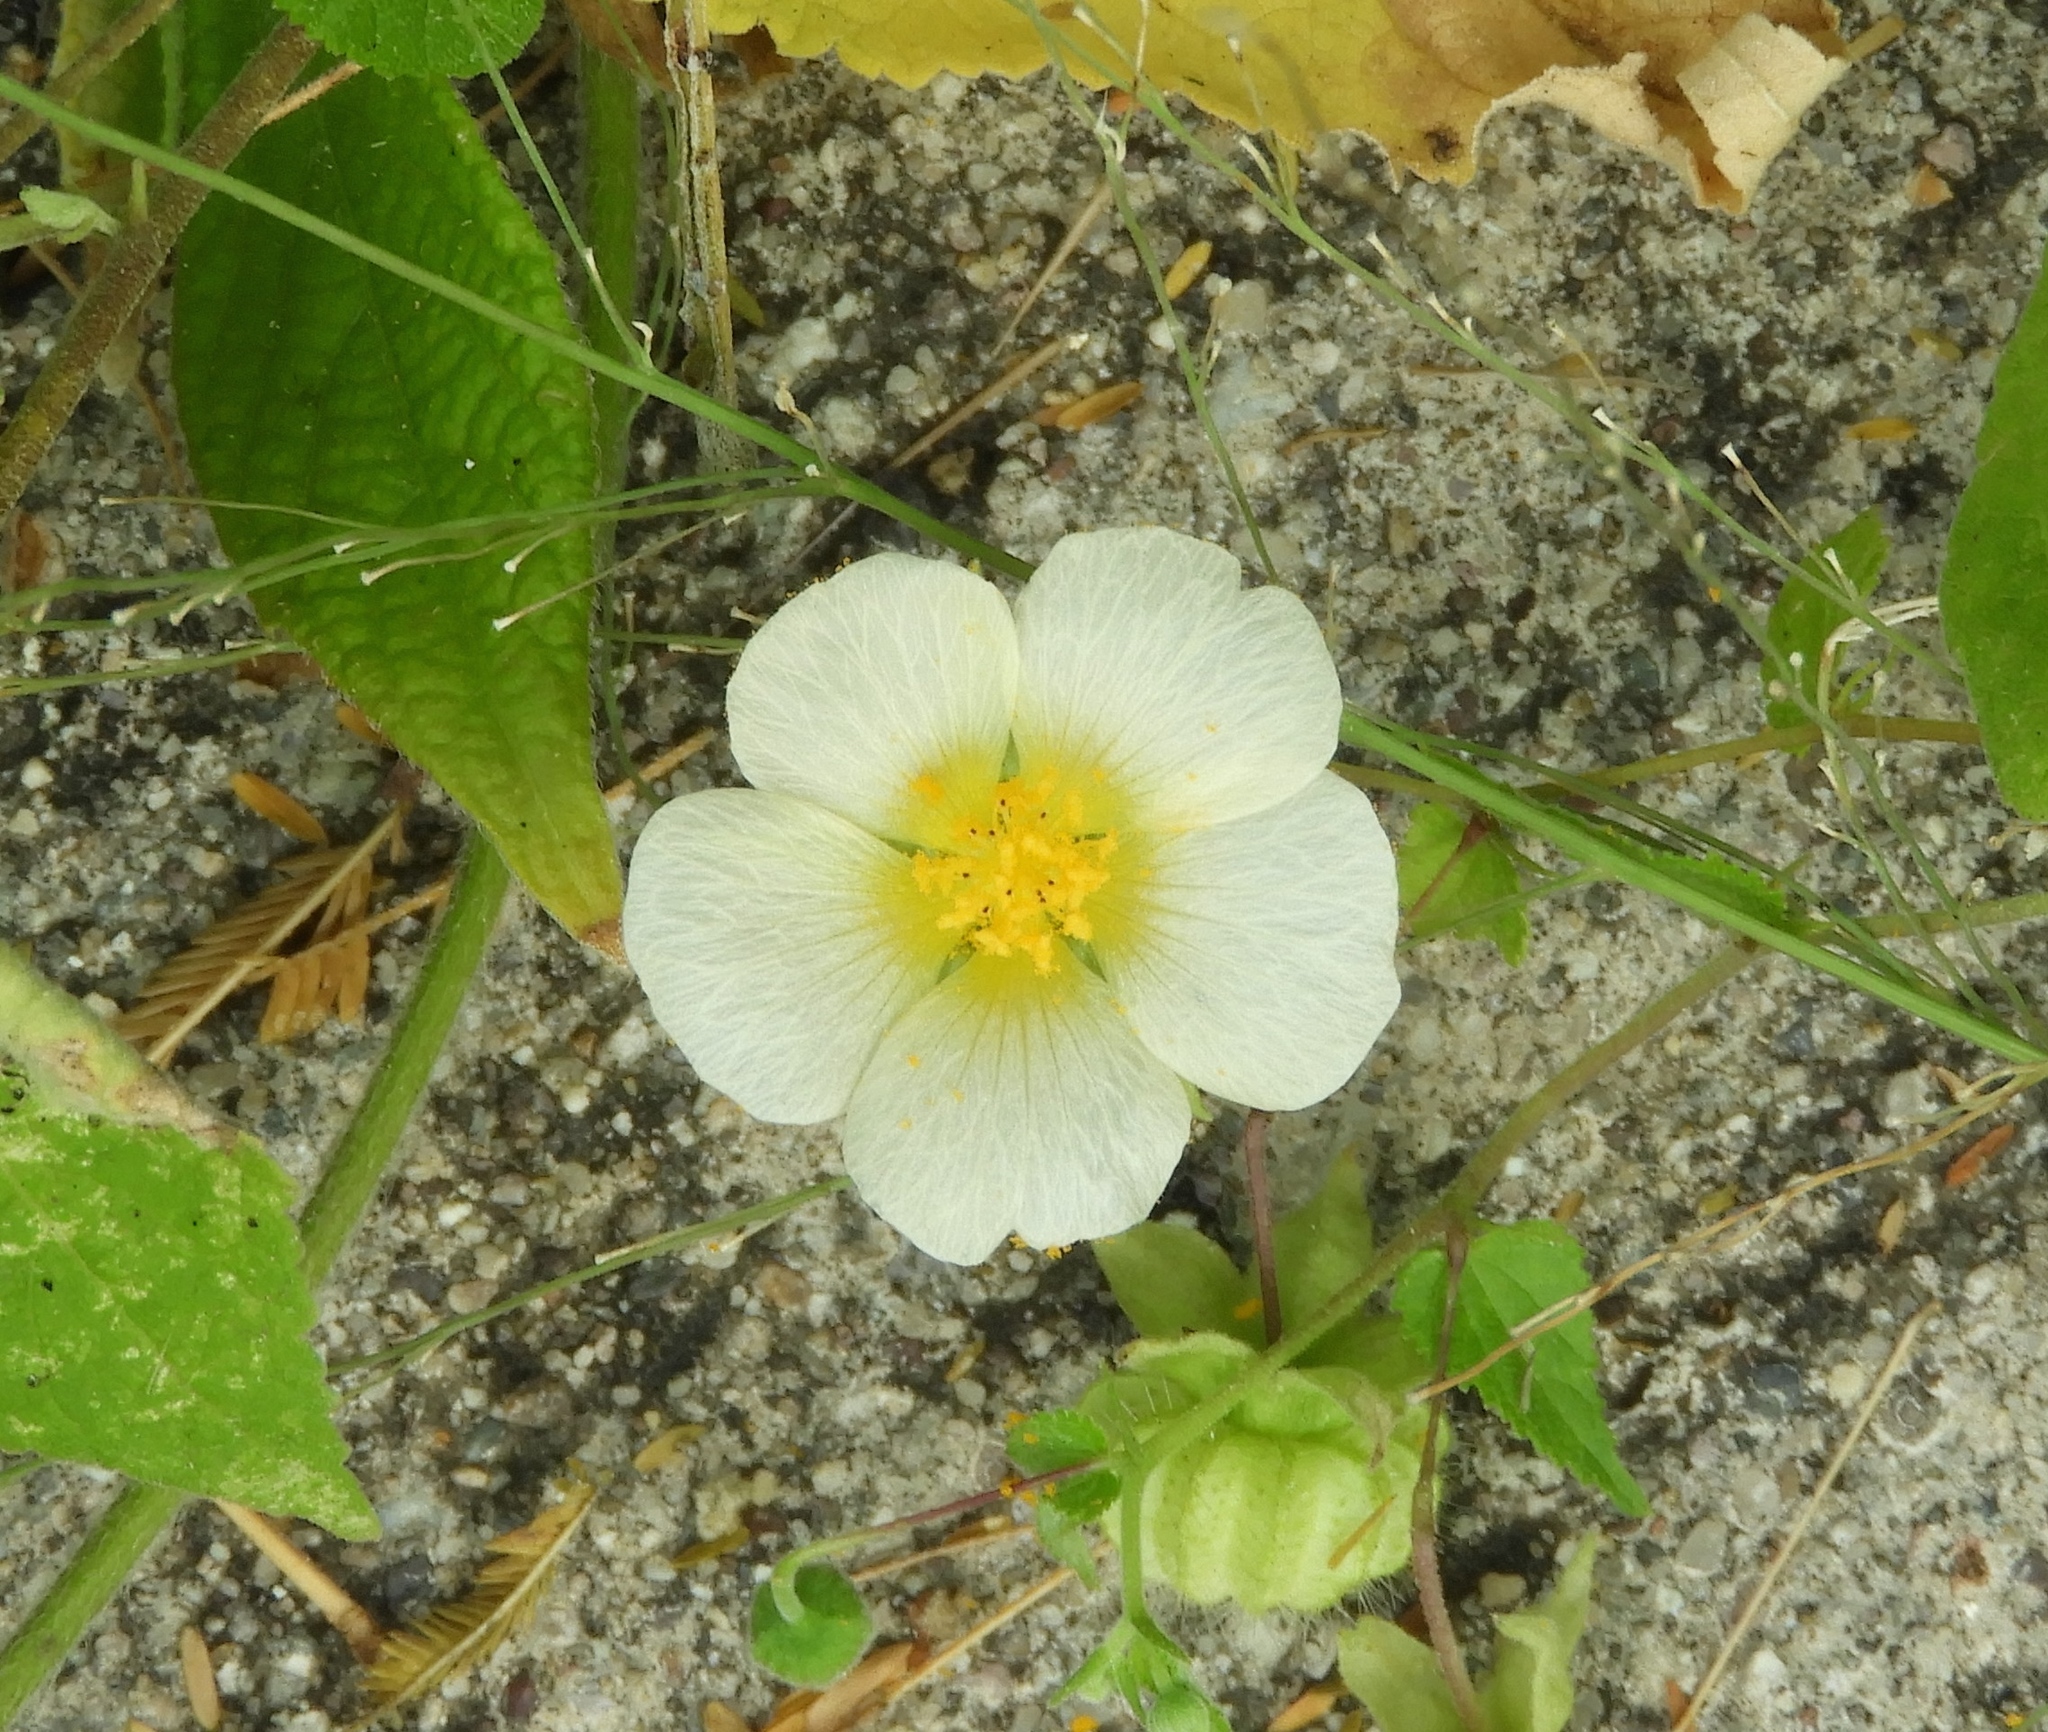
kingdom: Plantae
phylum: Tracheophyta
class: Magnoliopsida
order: Malvales
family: Malvaceae
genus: Herissantia
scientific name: Herissantia crispa
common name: Bladdermallow
